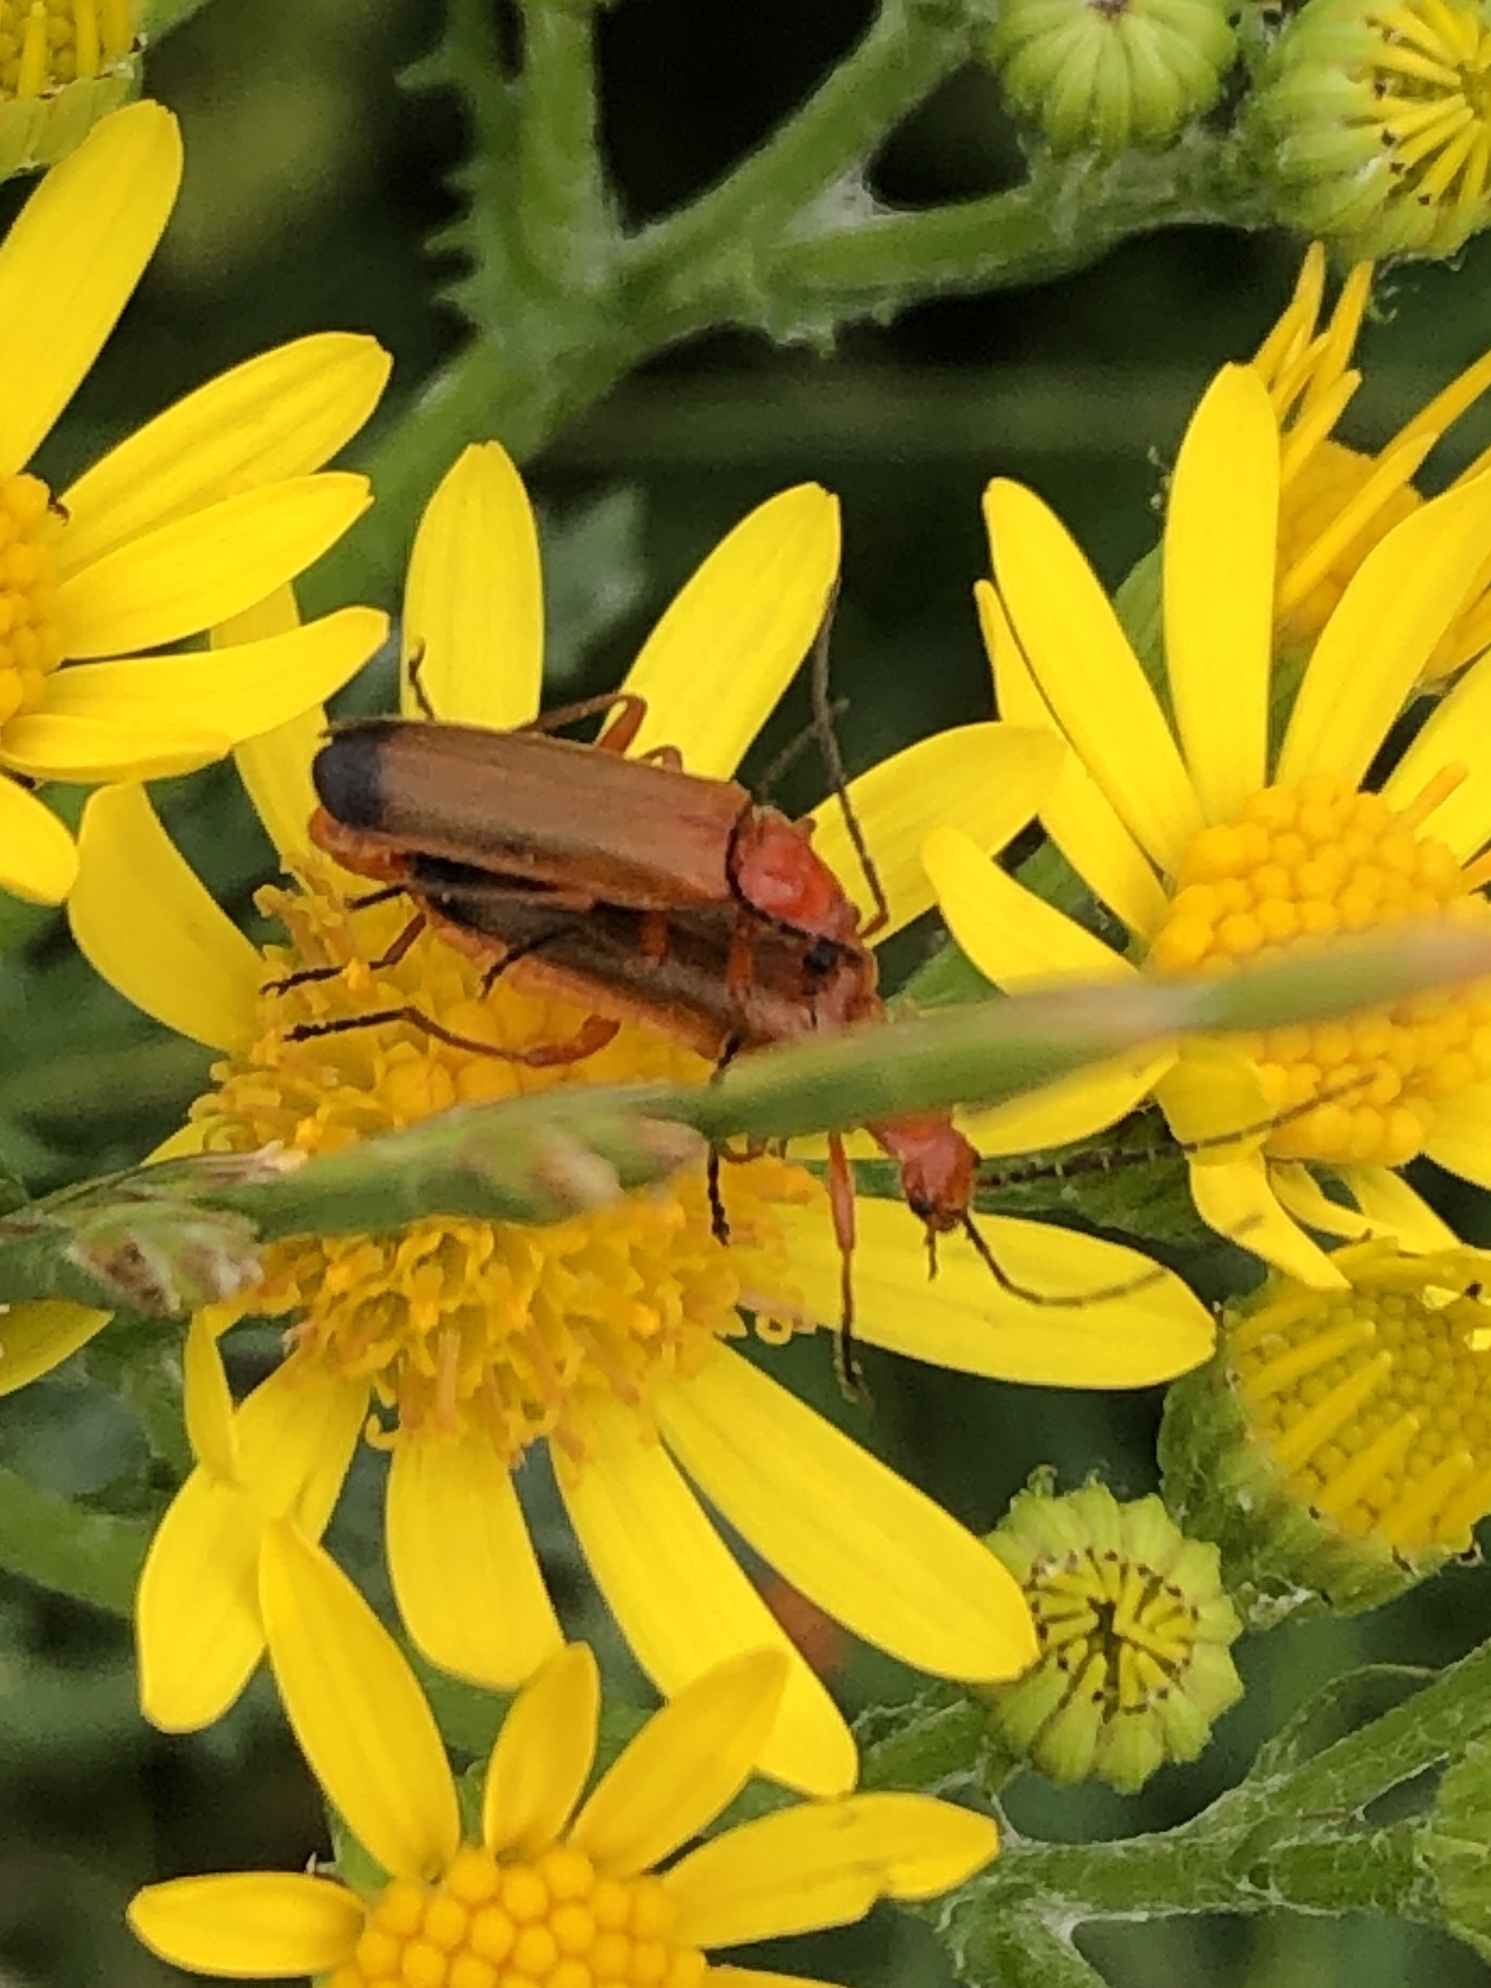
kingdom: Animalia
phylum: Arthropoda
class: Insecta
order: Coleoptera
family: Cantharidae
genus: Rhagonycha
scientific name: Rhagonycha fulva
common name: Common red soldier beetle
